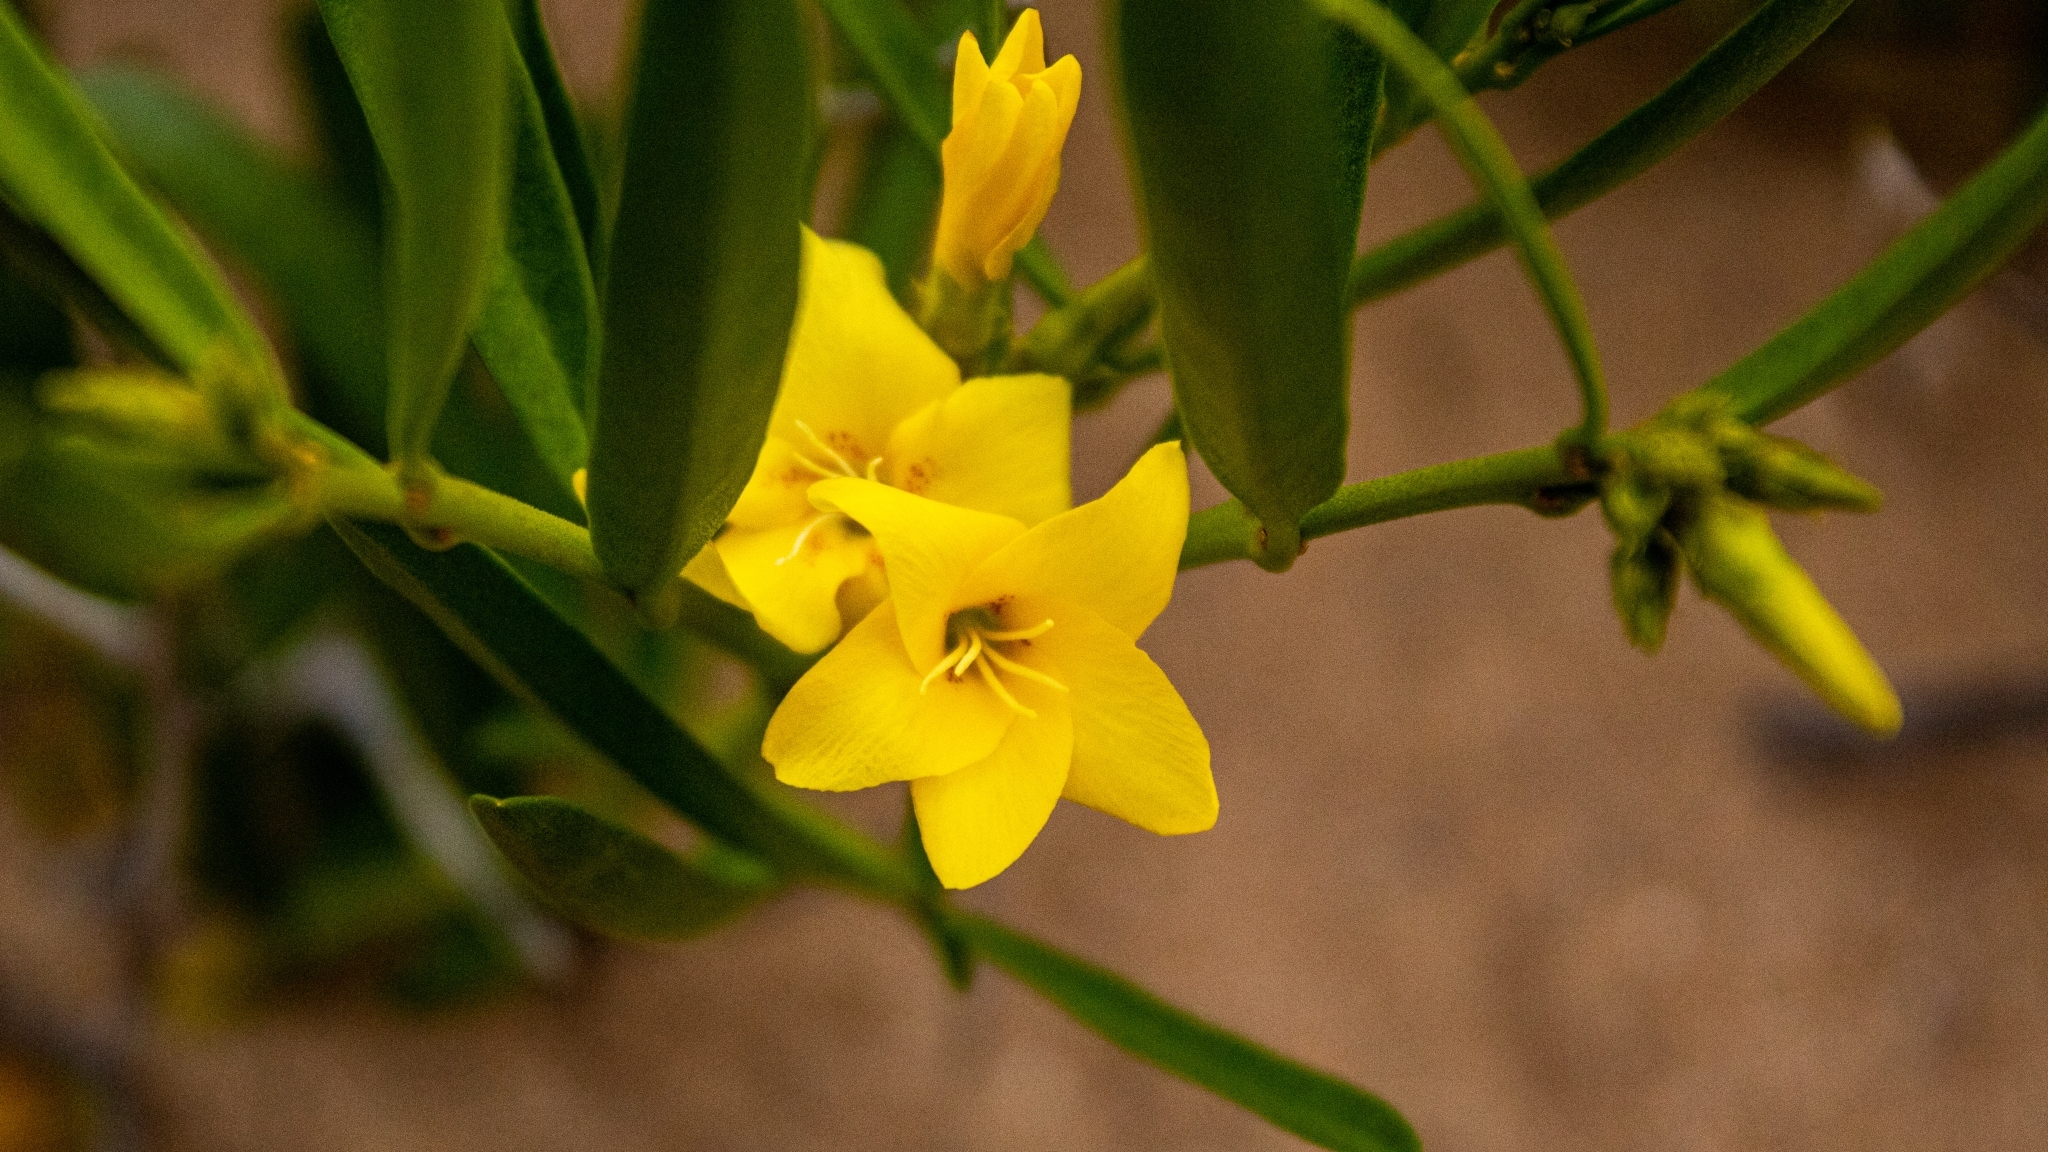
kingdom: Plantae
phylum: Tracheophyta
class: Magnoliopsida
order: Gentianales
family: Apocynaceae
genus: Skytanthus
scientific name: Skytanthus acutus
